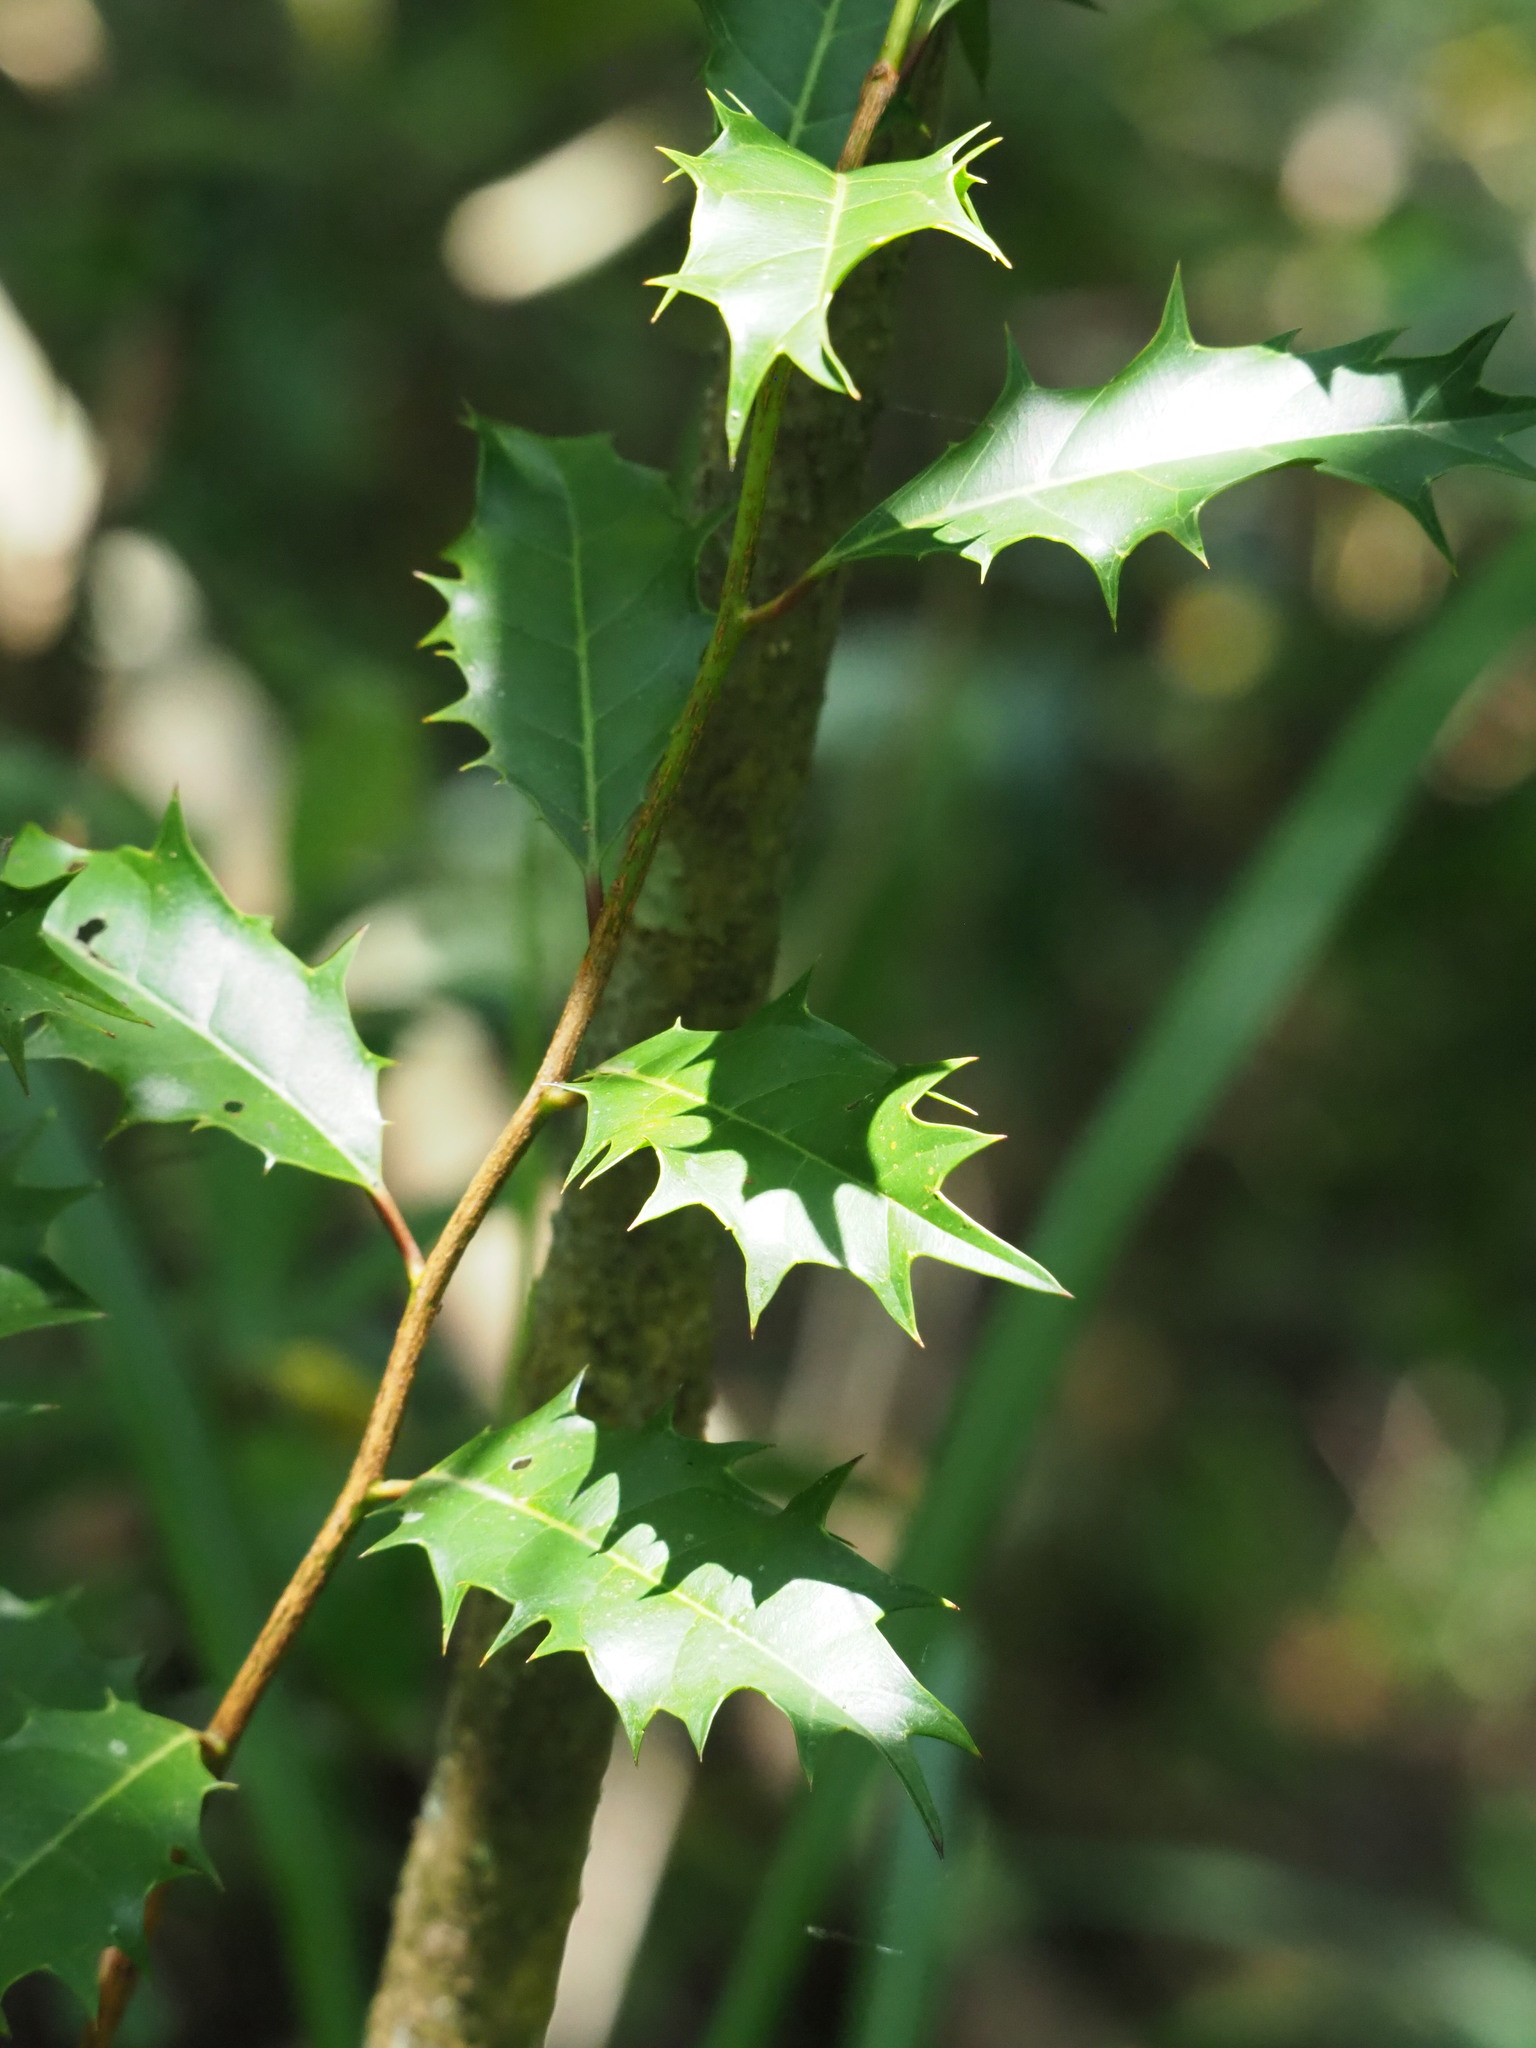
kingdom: Plantae
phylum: Tracheophyta
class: Magnoliopsida
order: Saxifragales
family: Iteaceae
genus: Itea
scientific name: Itea oldhamii
